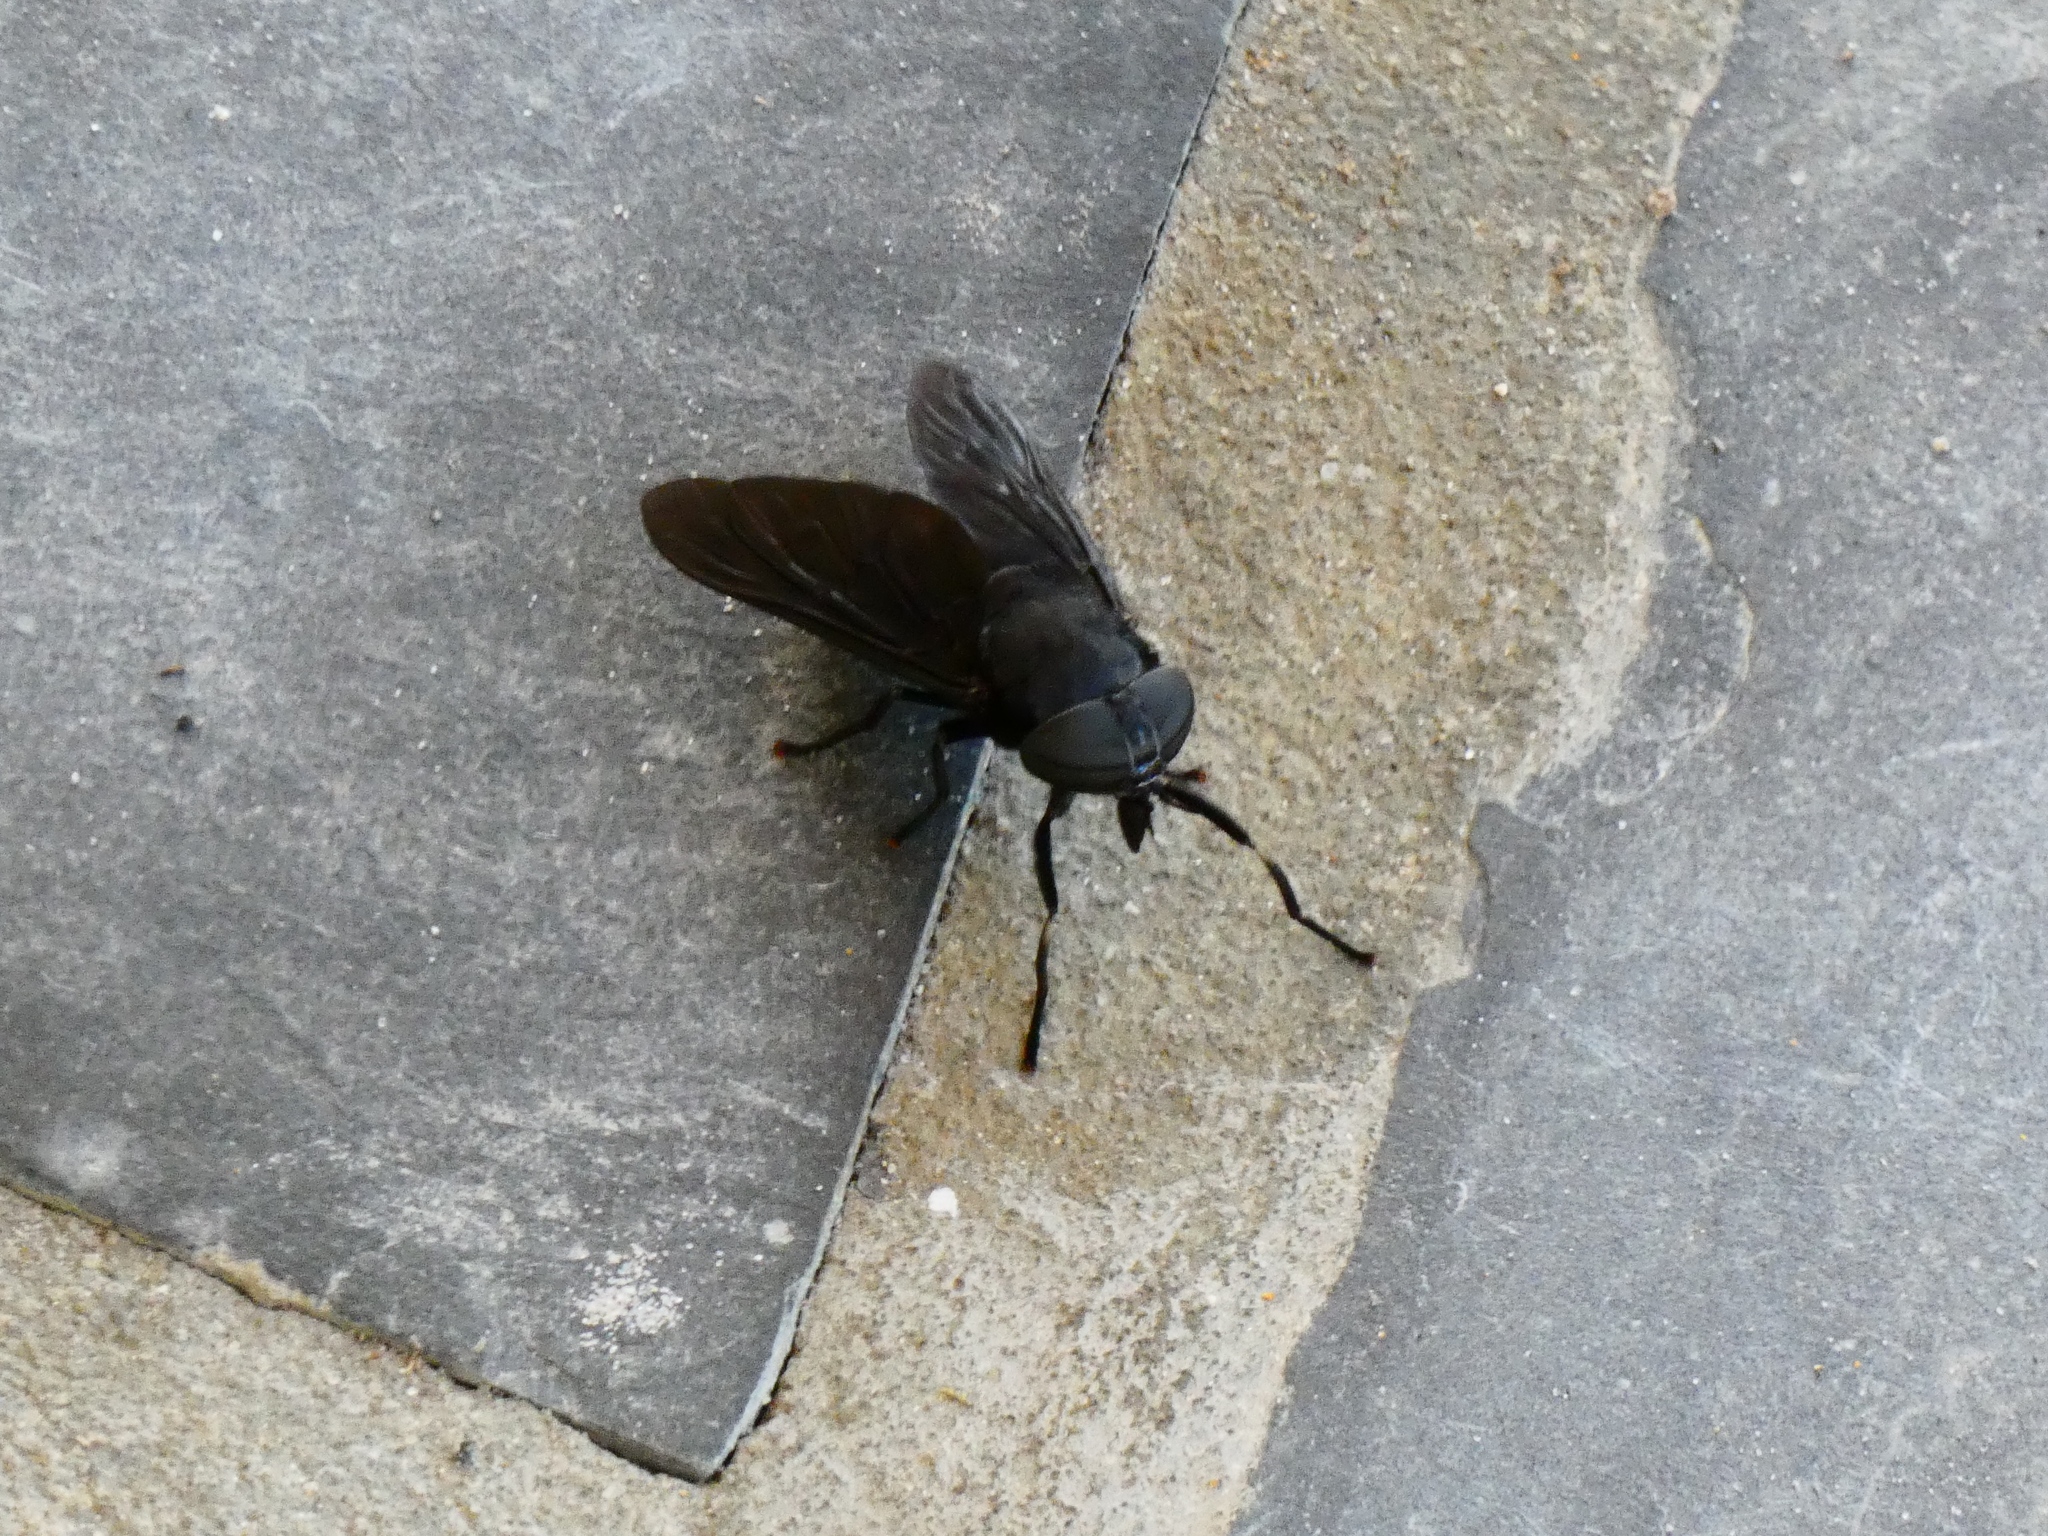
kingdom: Animalia
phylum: Arthropoda
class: Insecta
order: Diptera
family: Tabanidae
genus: Tabanus
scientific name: Tabanus atratus
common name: Black horse fly
